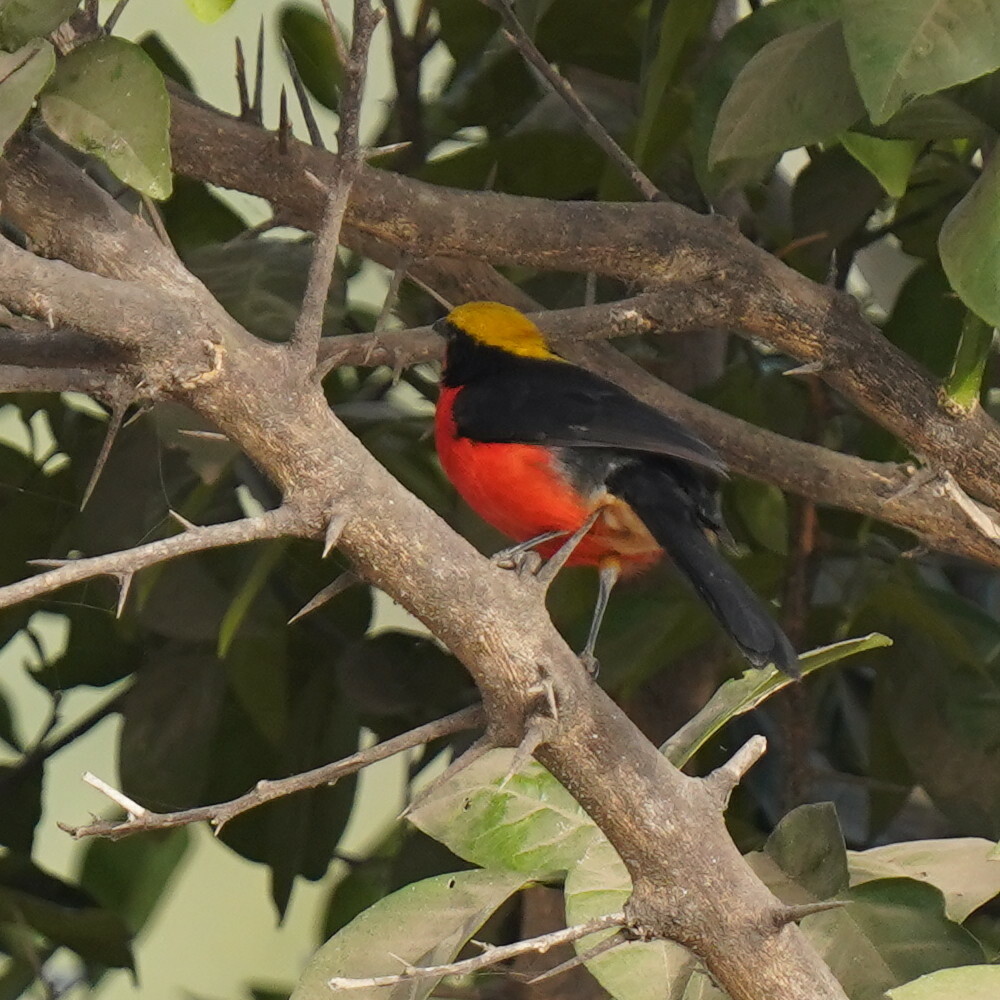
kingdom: Animalia
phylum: Chordata
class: Aves
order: Passeriformes
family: Malaconotidae
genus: Laniarius
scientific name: Laniarius barbarus
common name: Yellow-crowned gonolek
